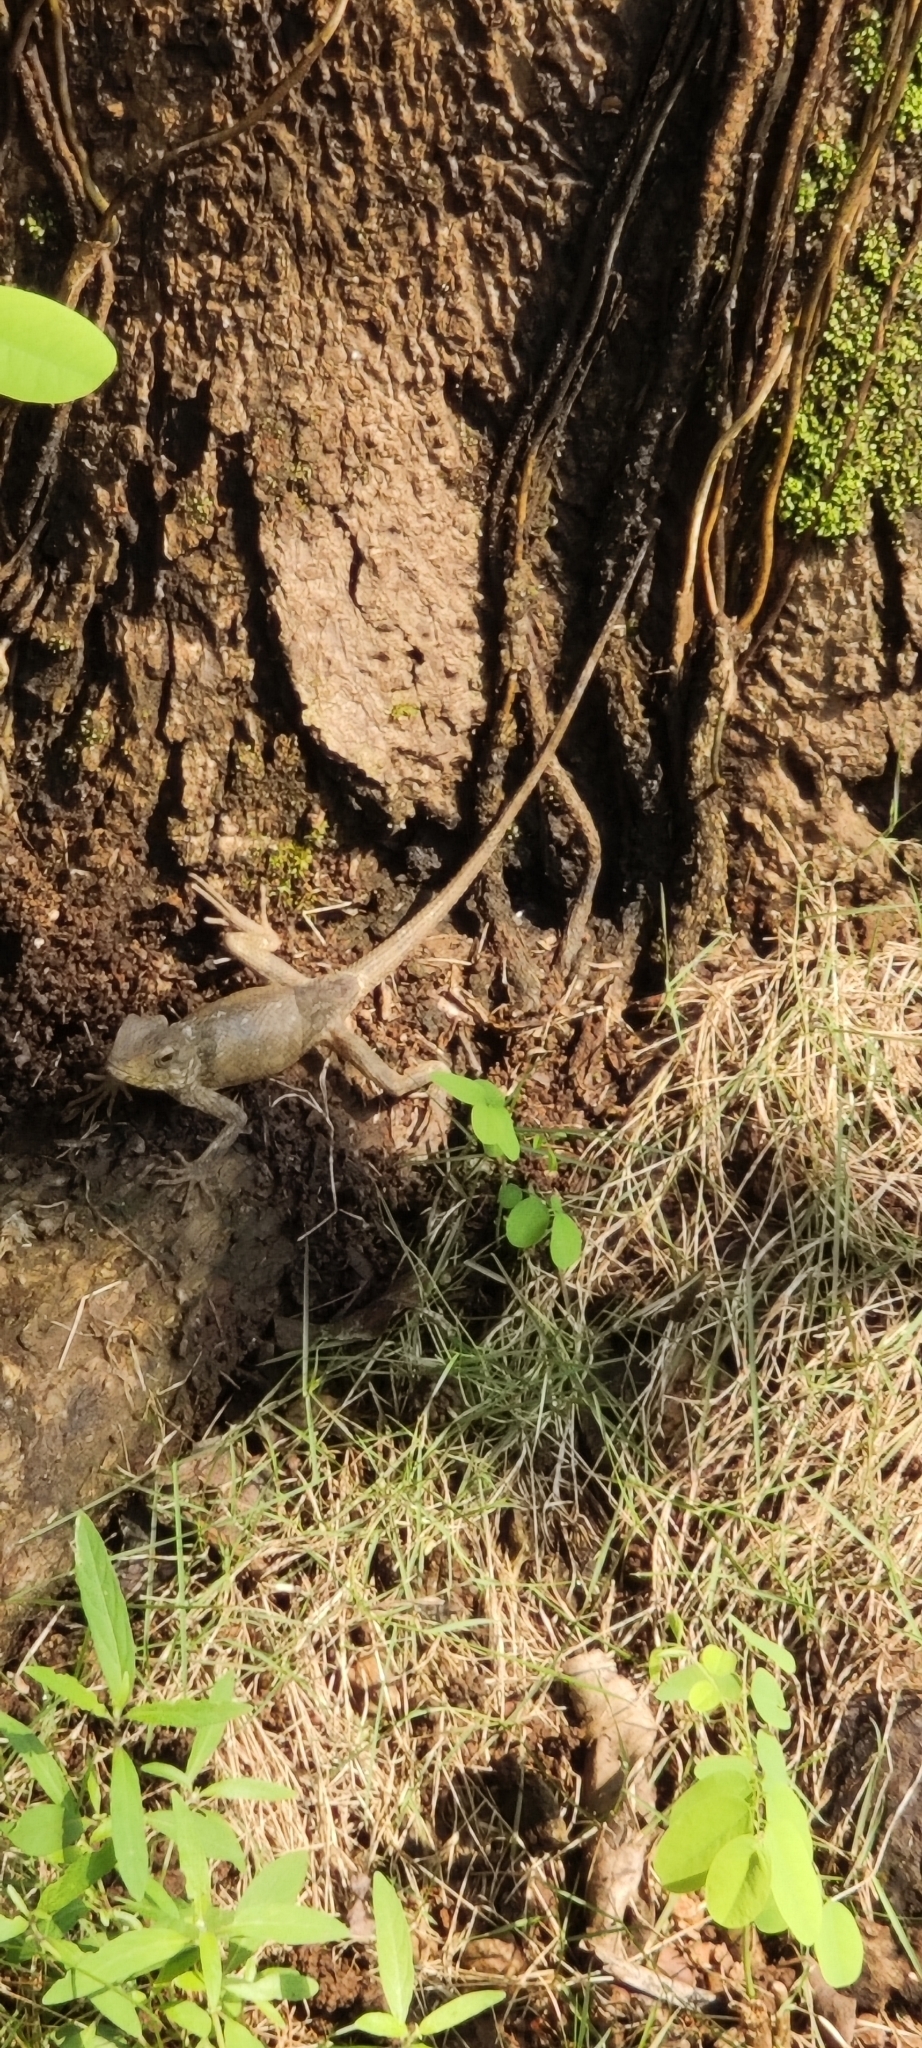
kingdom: Animalia
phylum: Chordata
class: Squamata
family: Agamidae
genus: Calotes
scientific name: Calotes versicolor
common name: Oriental garden lizard
